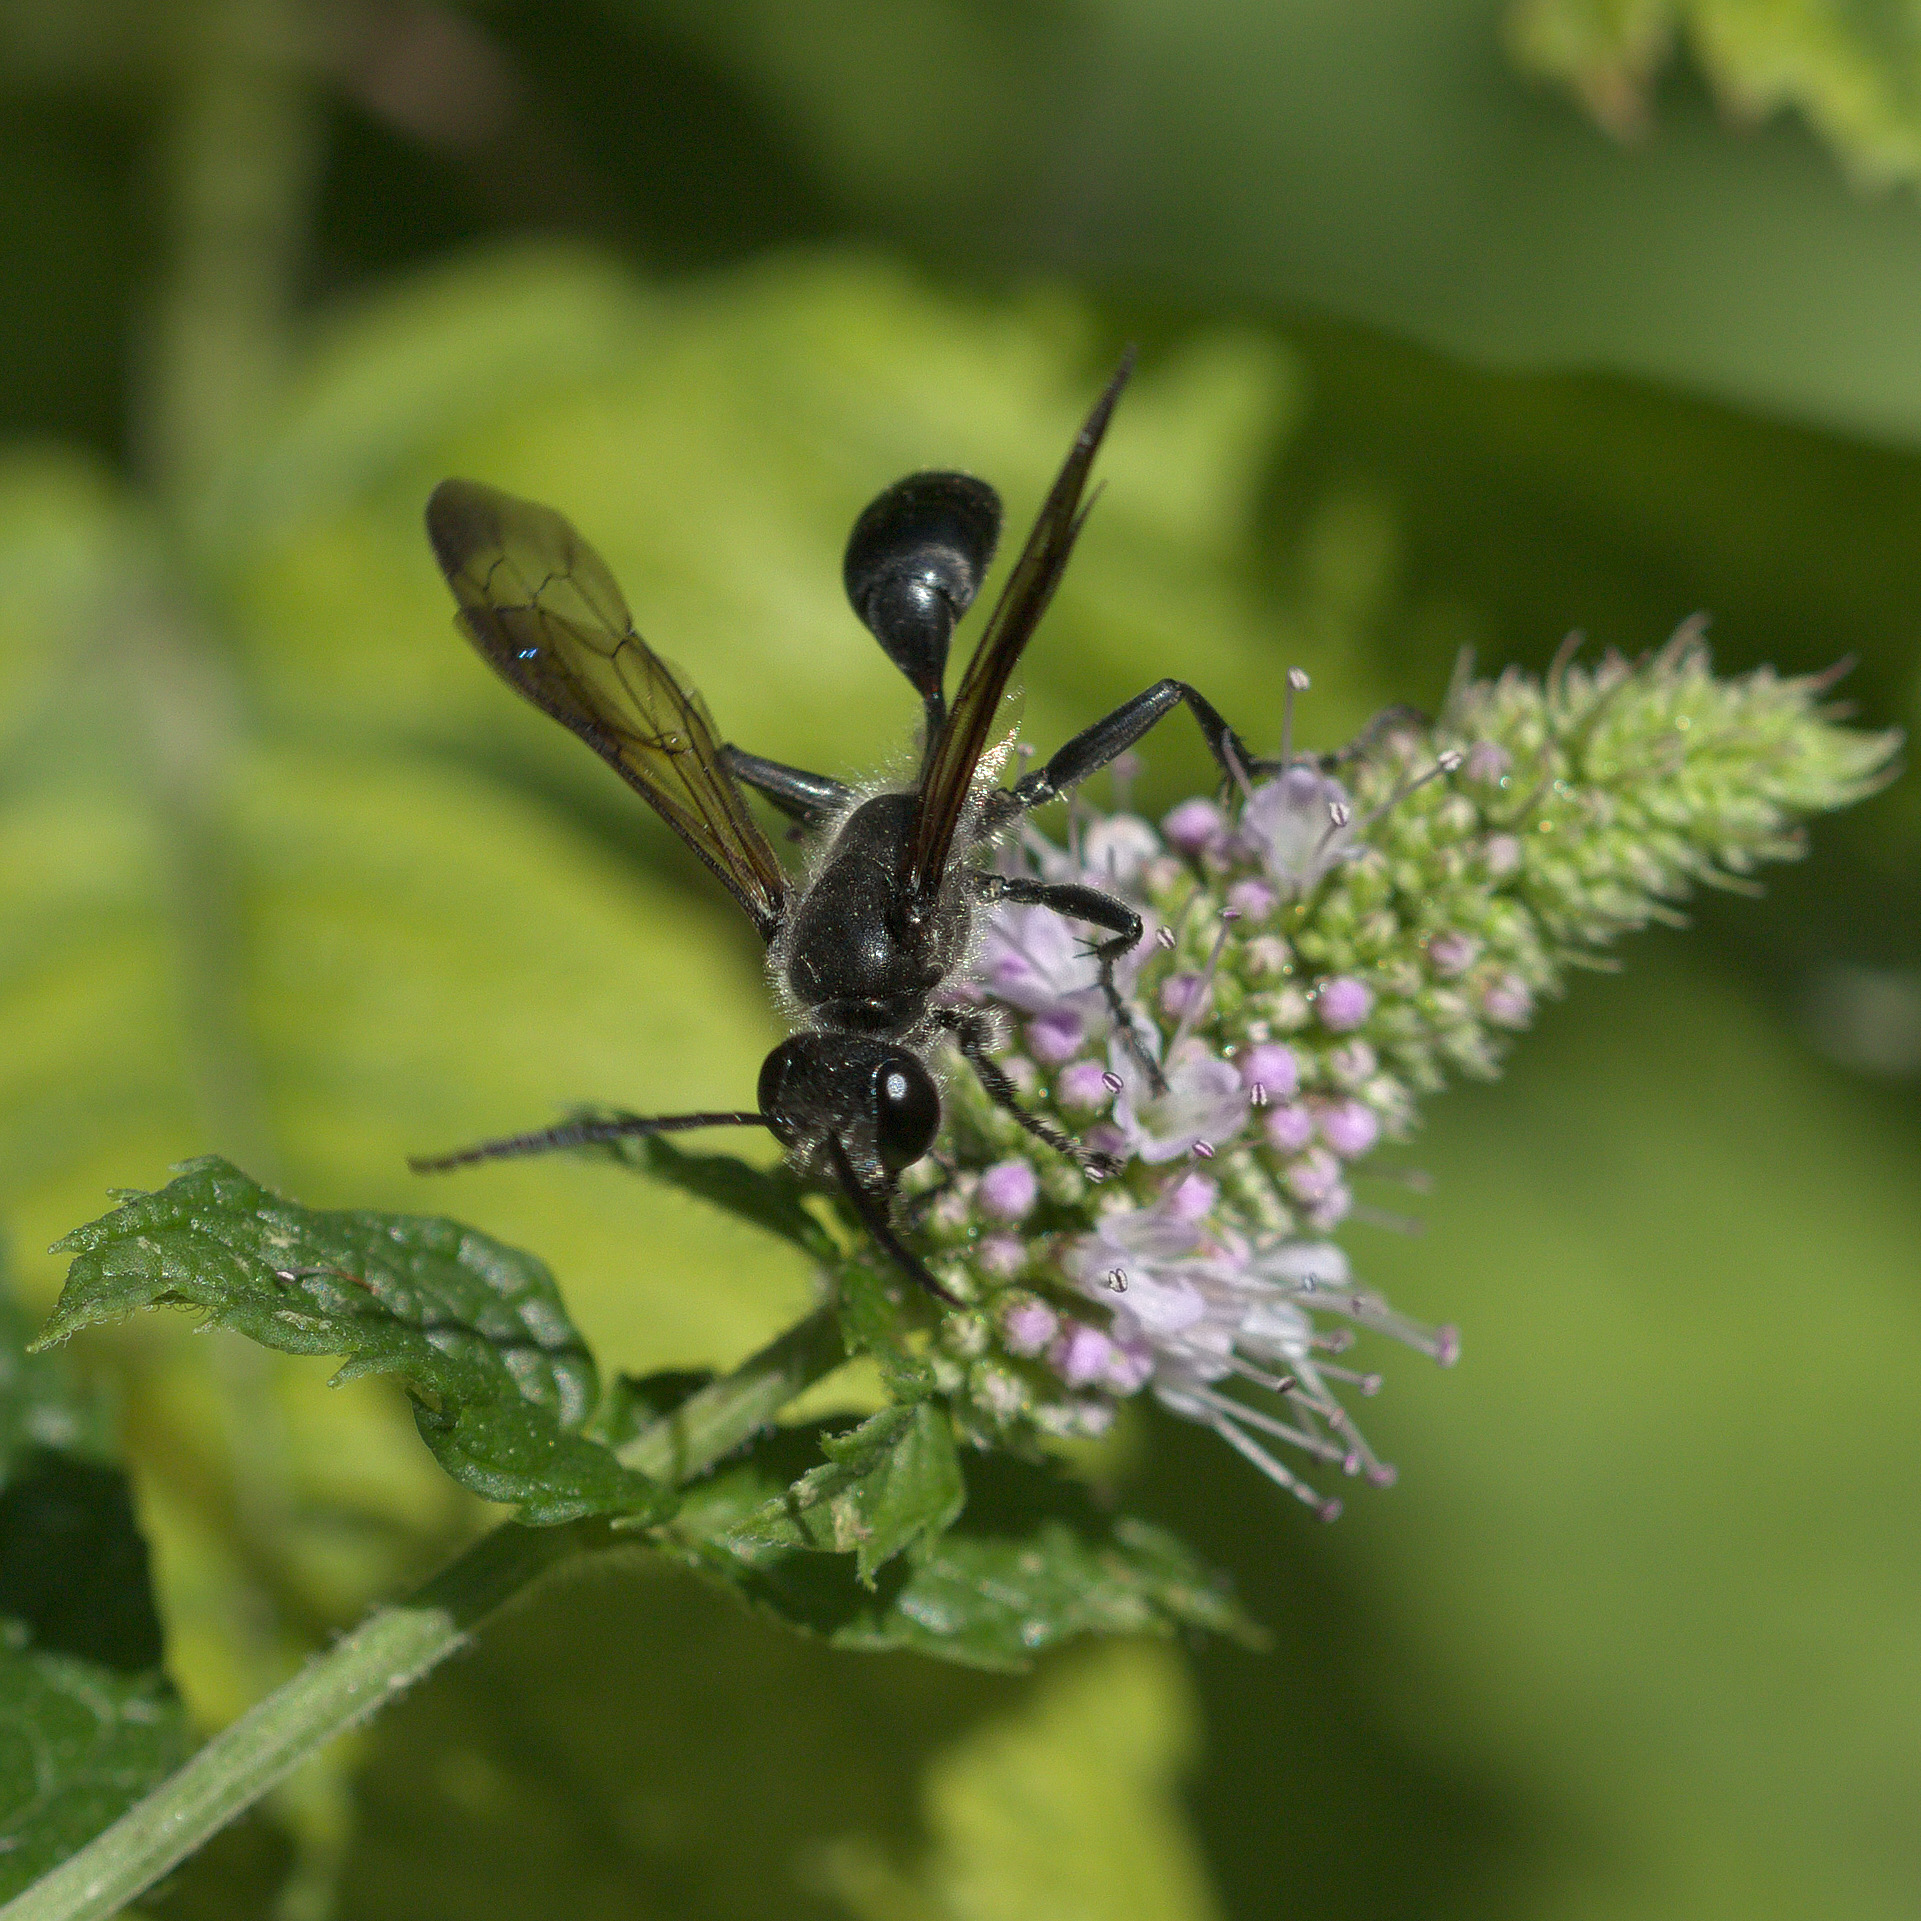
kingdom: Animalia
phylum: Arthropoda
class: Insecta
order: Hymenoptera
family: Sphecidae
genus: Isodontia
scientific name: Isodontia mexicana
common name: Mud dauber
